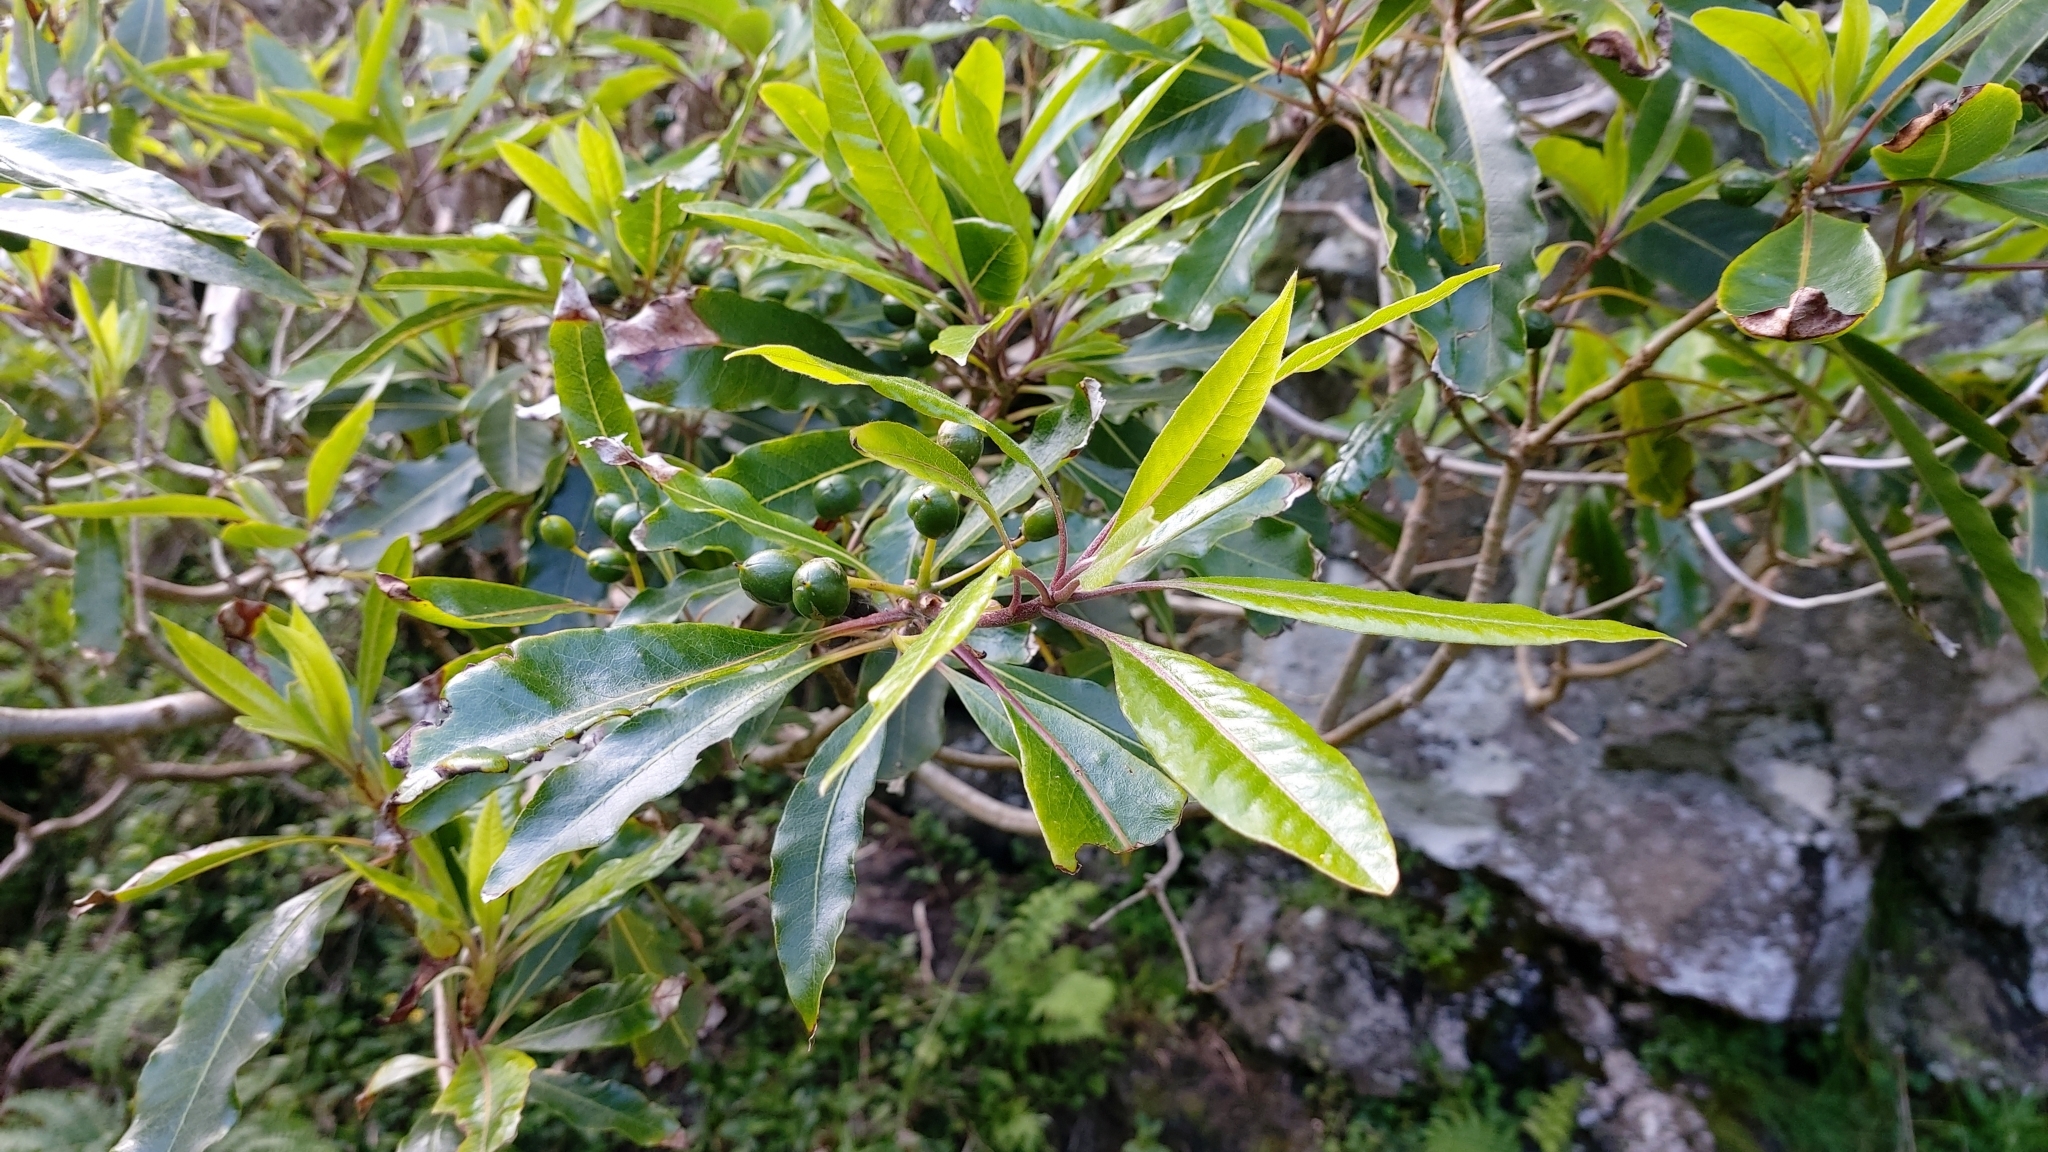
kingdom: Plantae
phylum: Tracheophyta
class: Magnoliopsida
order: Apiales
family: Pittosporaceae
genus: Pittosporum
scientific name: Pittosporum undulatum
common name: Australian cheesewood
